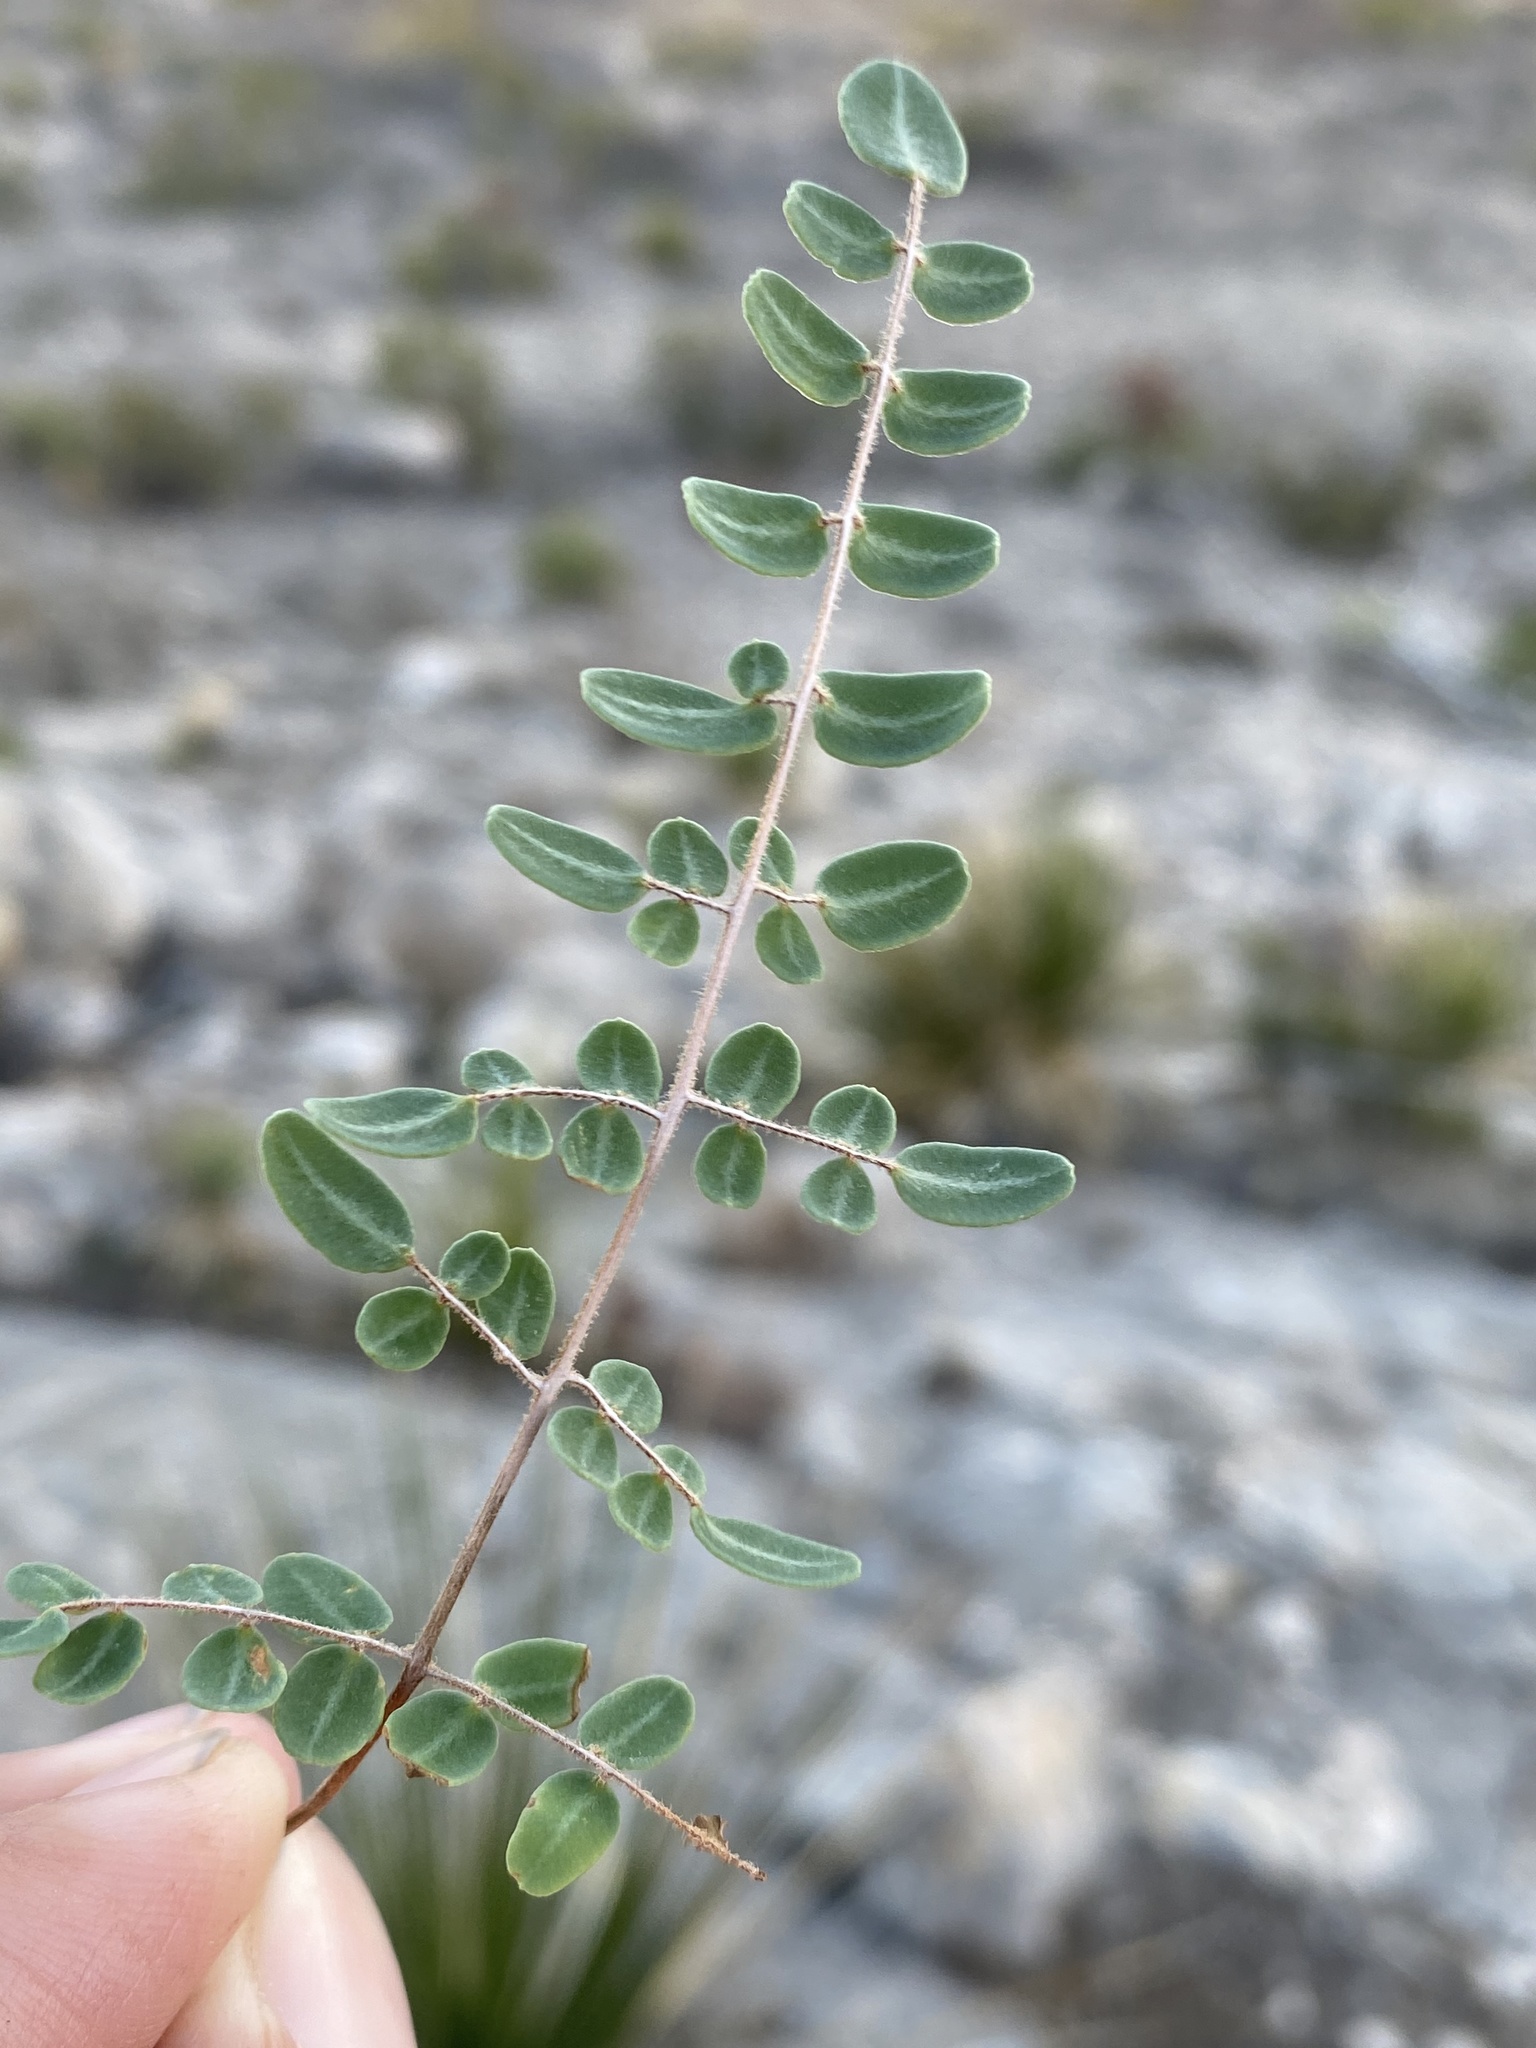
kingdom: Plantae
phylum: Tracheophyta
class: Polypodiopsida
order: Polypodiales
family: Pteridaceae
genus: Pellaea
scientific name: Pellaea intermedia
